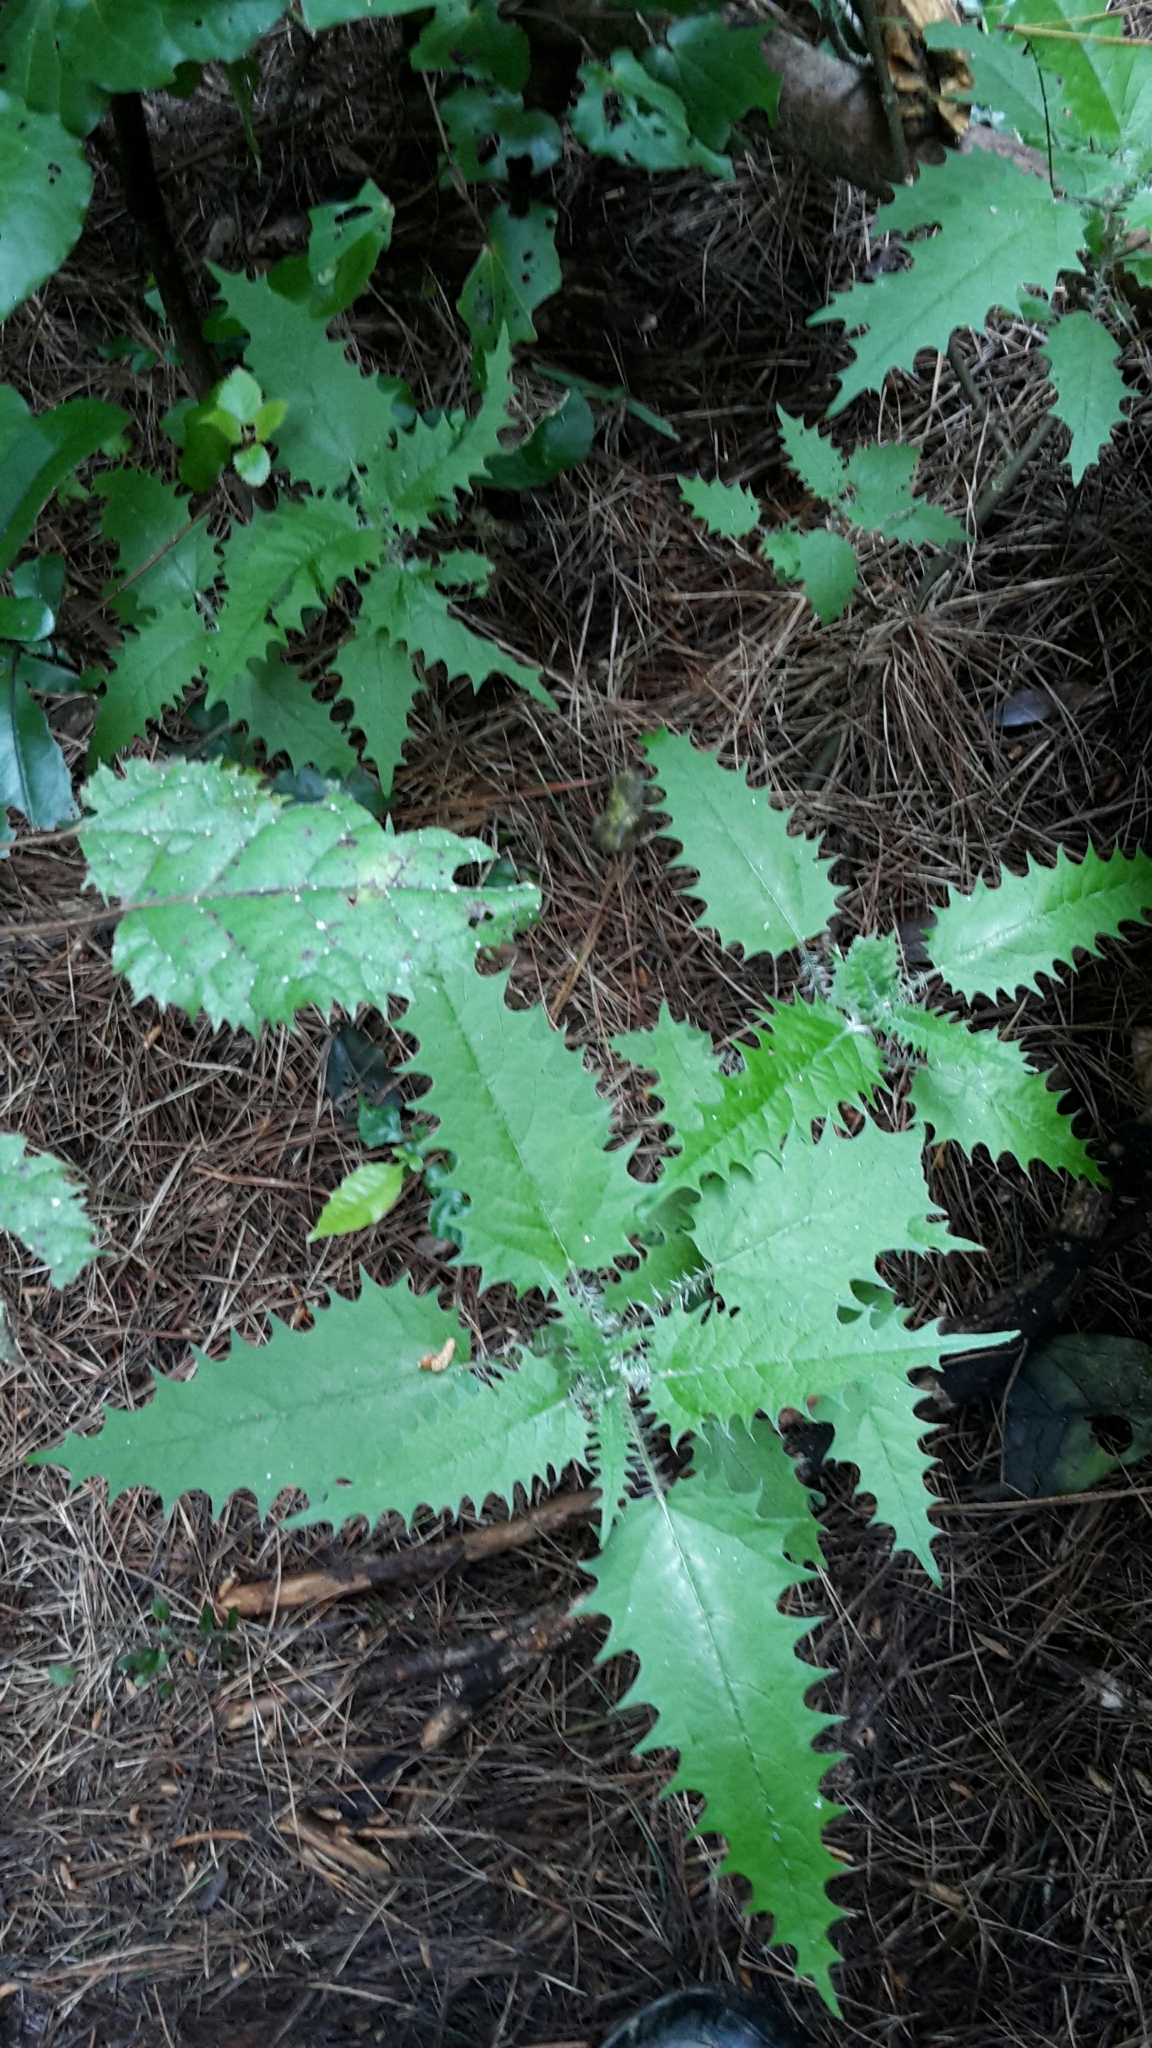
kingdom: Plantae
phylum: Tracheophyta
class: Magnoliopsida
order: Rosales
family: Urticaceae
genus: Urtica
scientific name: Urtica ferox
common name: Tree nettle
